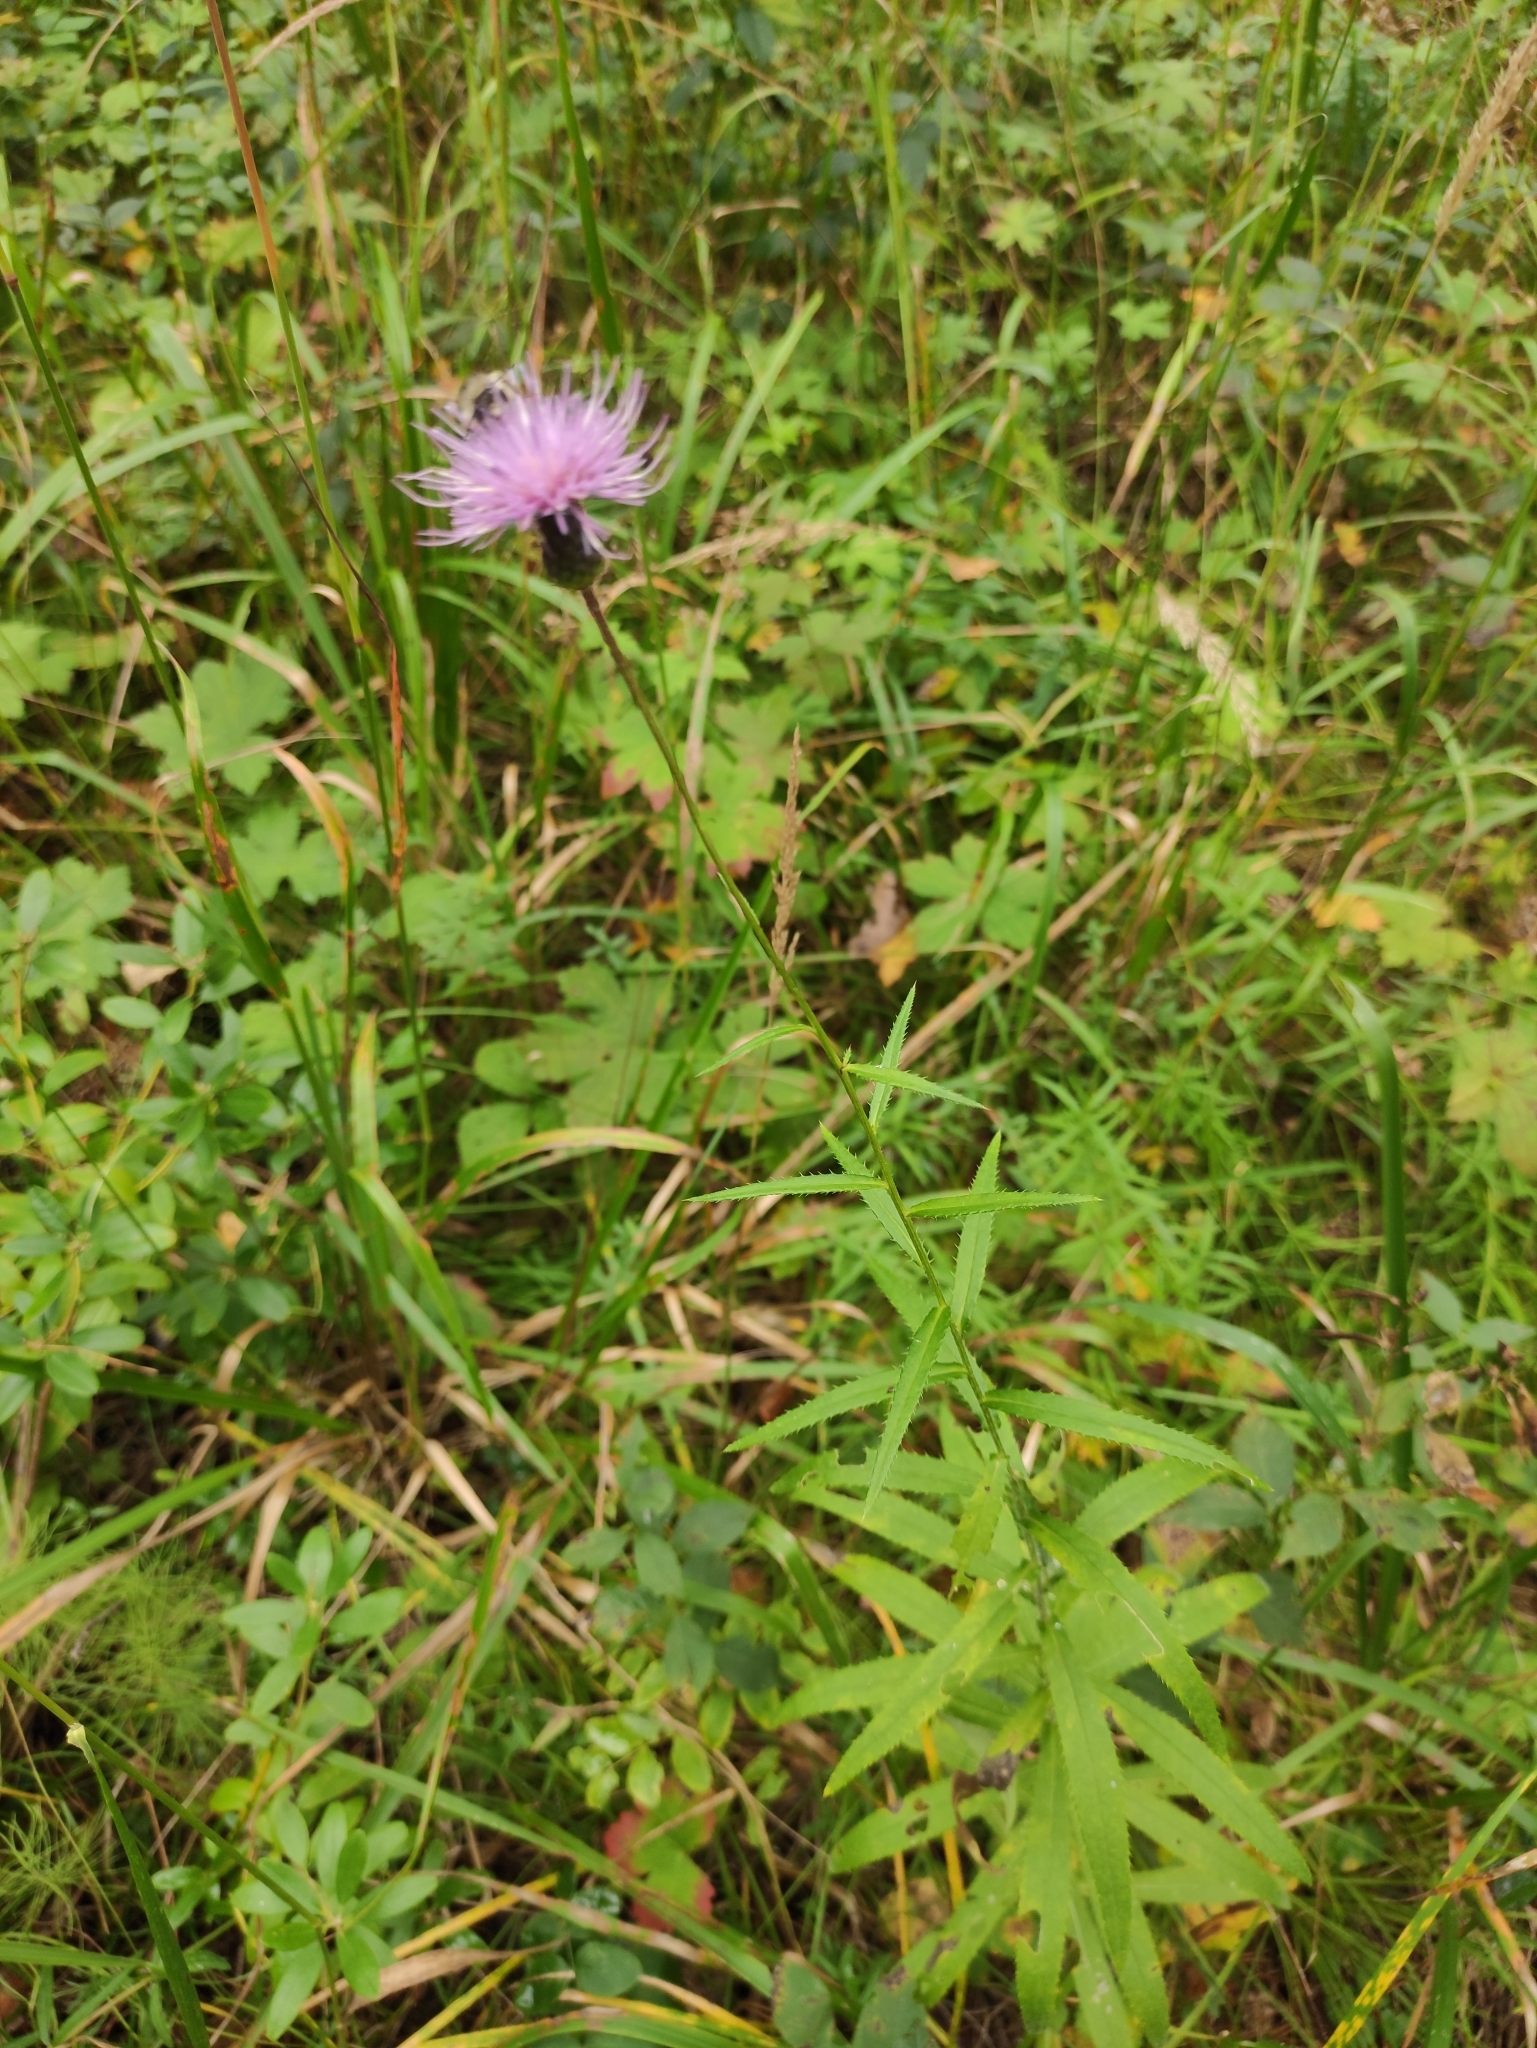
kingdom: Plantae
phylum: Tracheophyta
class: Magnoliopsida
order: Asterales
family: Asteraceae
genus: Cirsium
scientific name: Cirsium serratuloides
